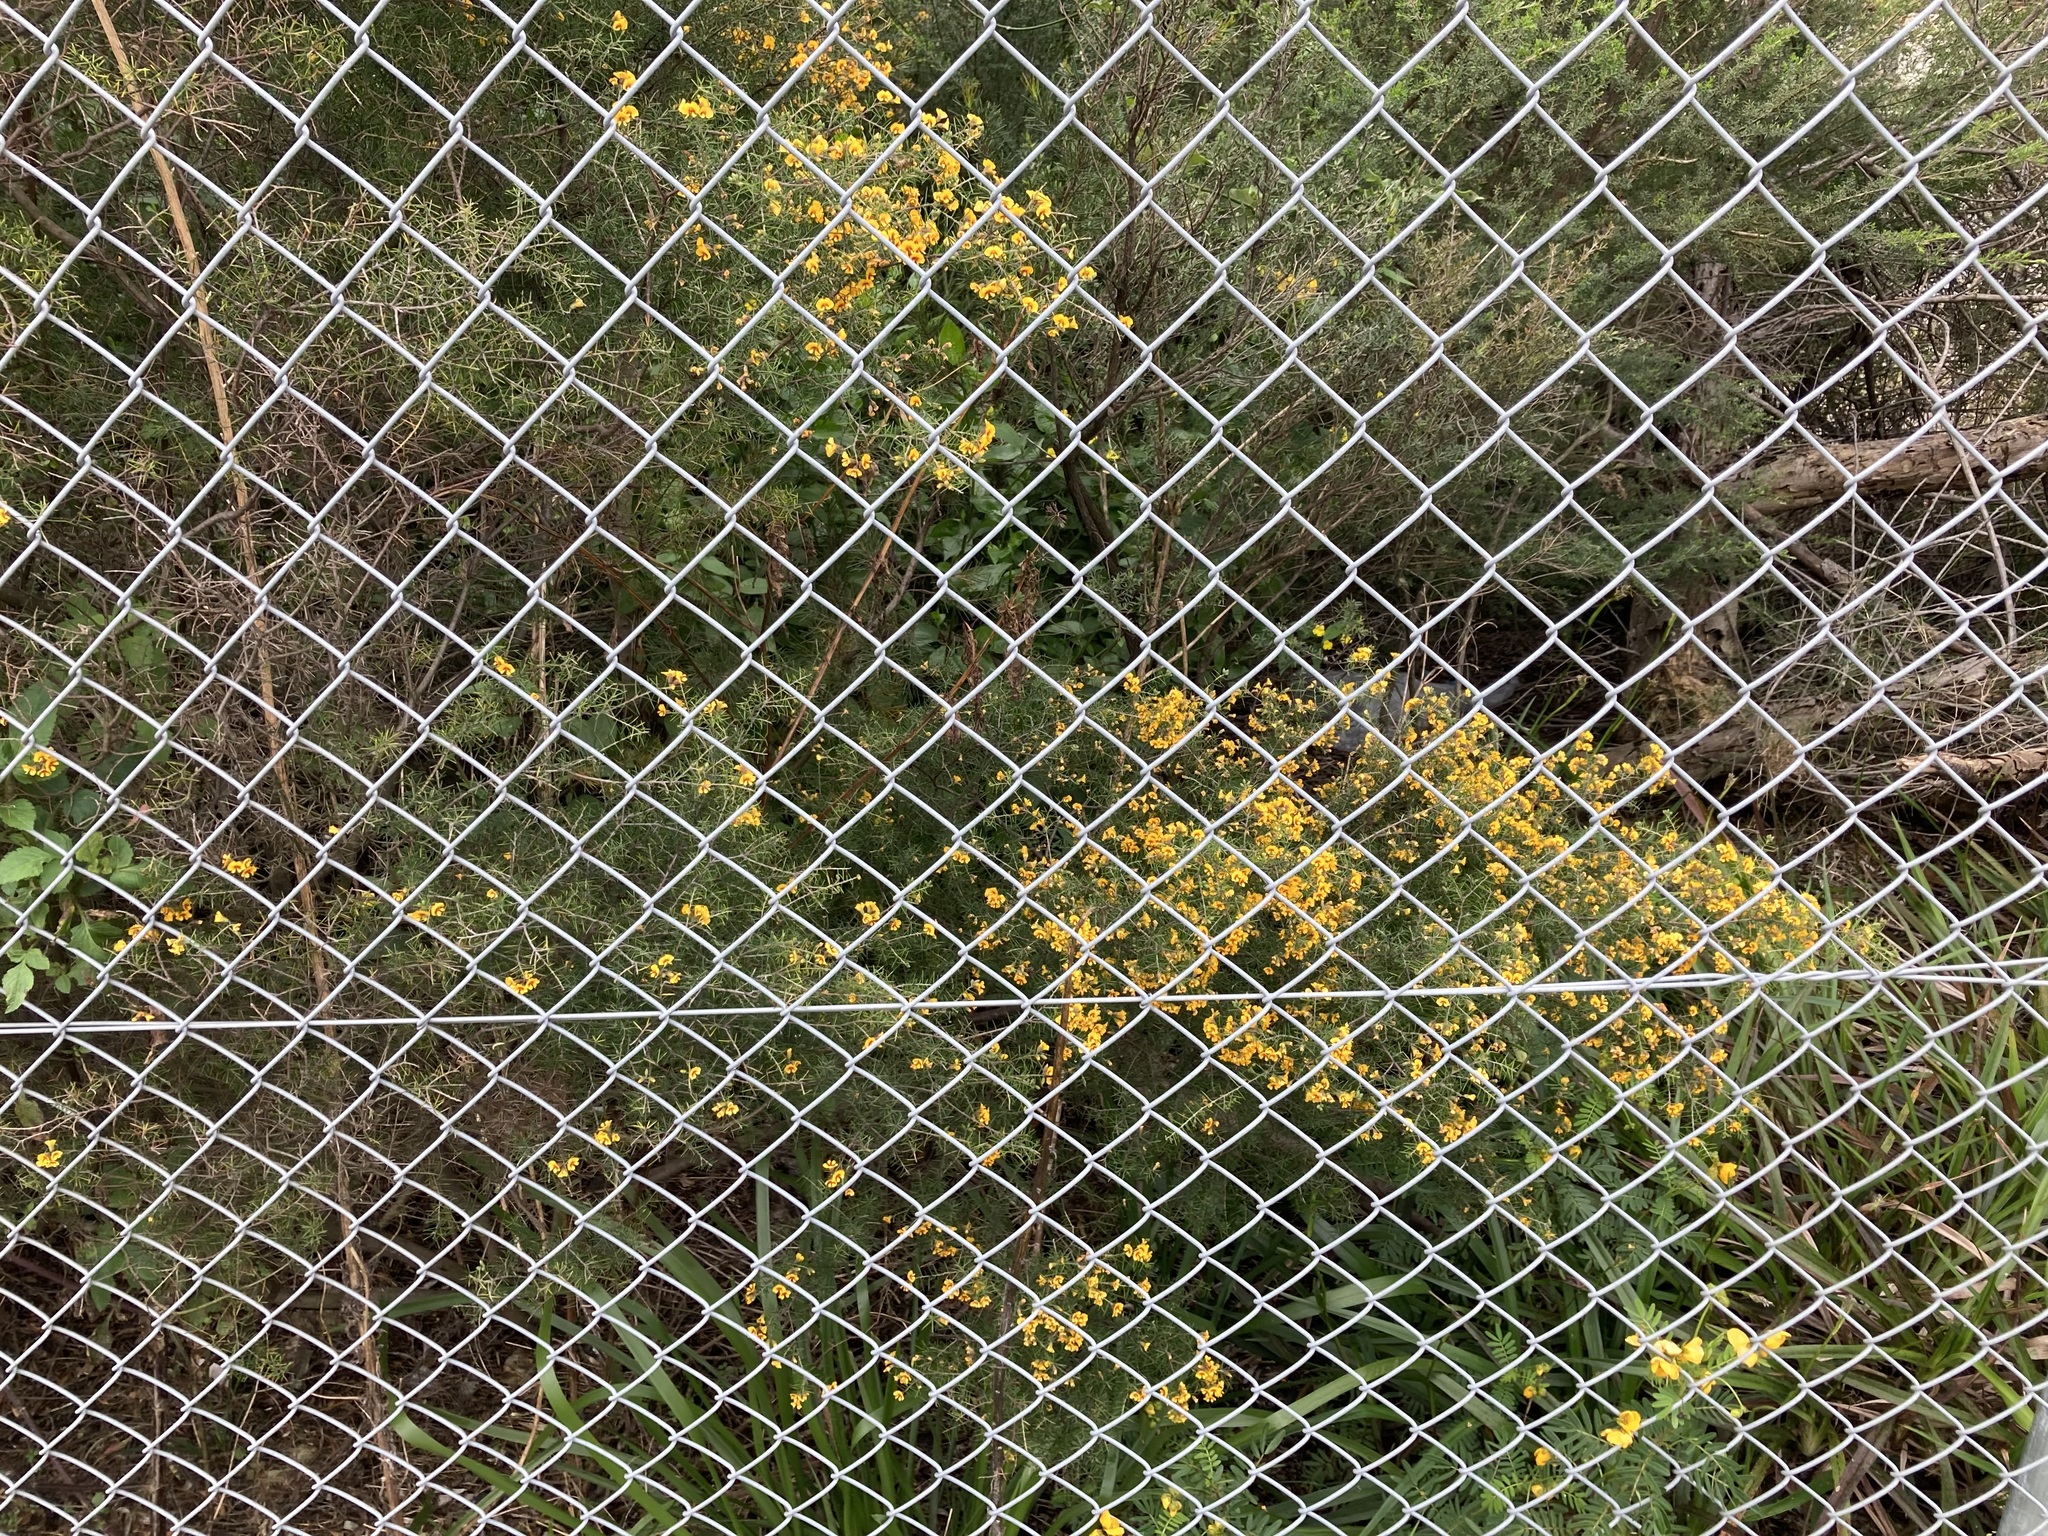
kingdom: Plantae
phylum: Tracheophyta
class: Magnoliopsida
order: Fabales
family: Fabaceae
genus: Dillwynia
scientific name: Dillwynia sieberi
